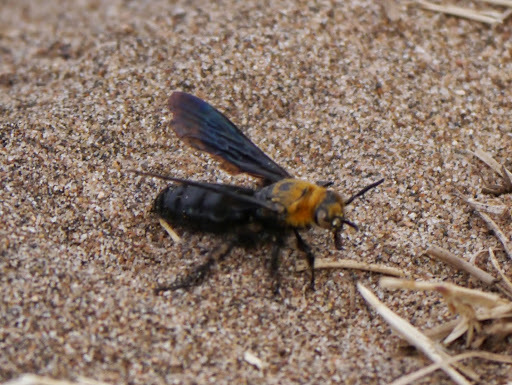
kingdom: Animalia
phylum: Arthropoda
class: Insecta
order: Hymenoptera
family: Scoliidae
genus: Campsomeriella
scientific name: Campsomeriella caelebs
